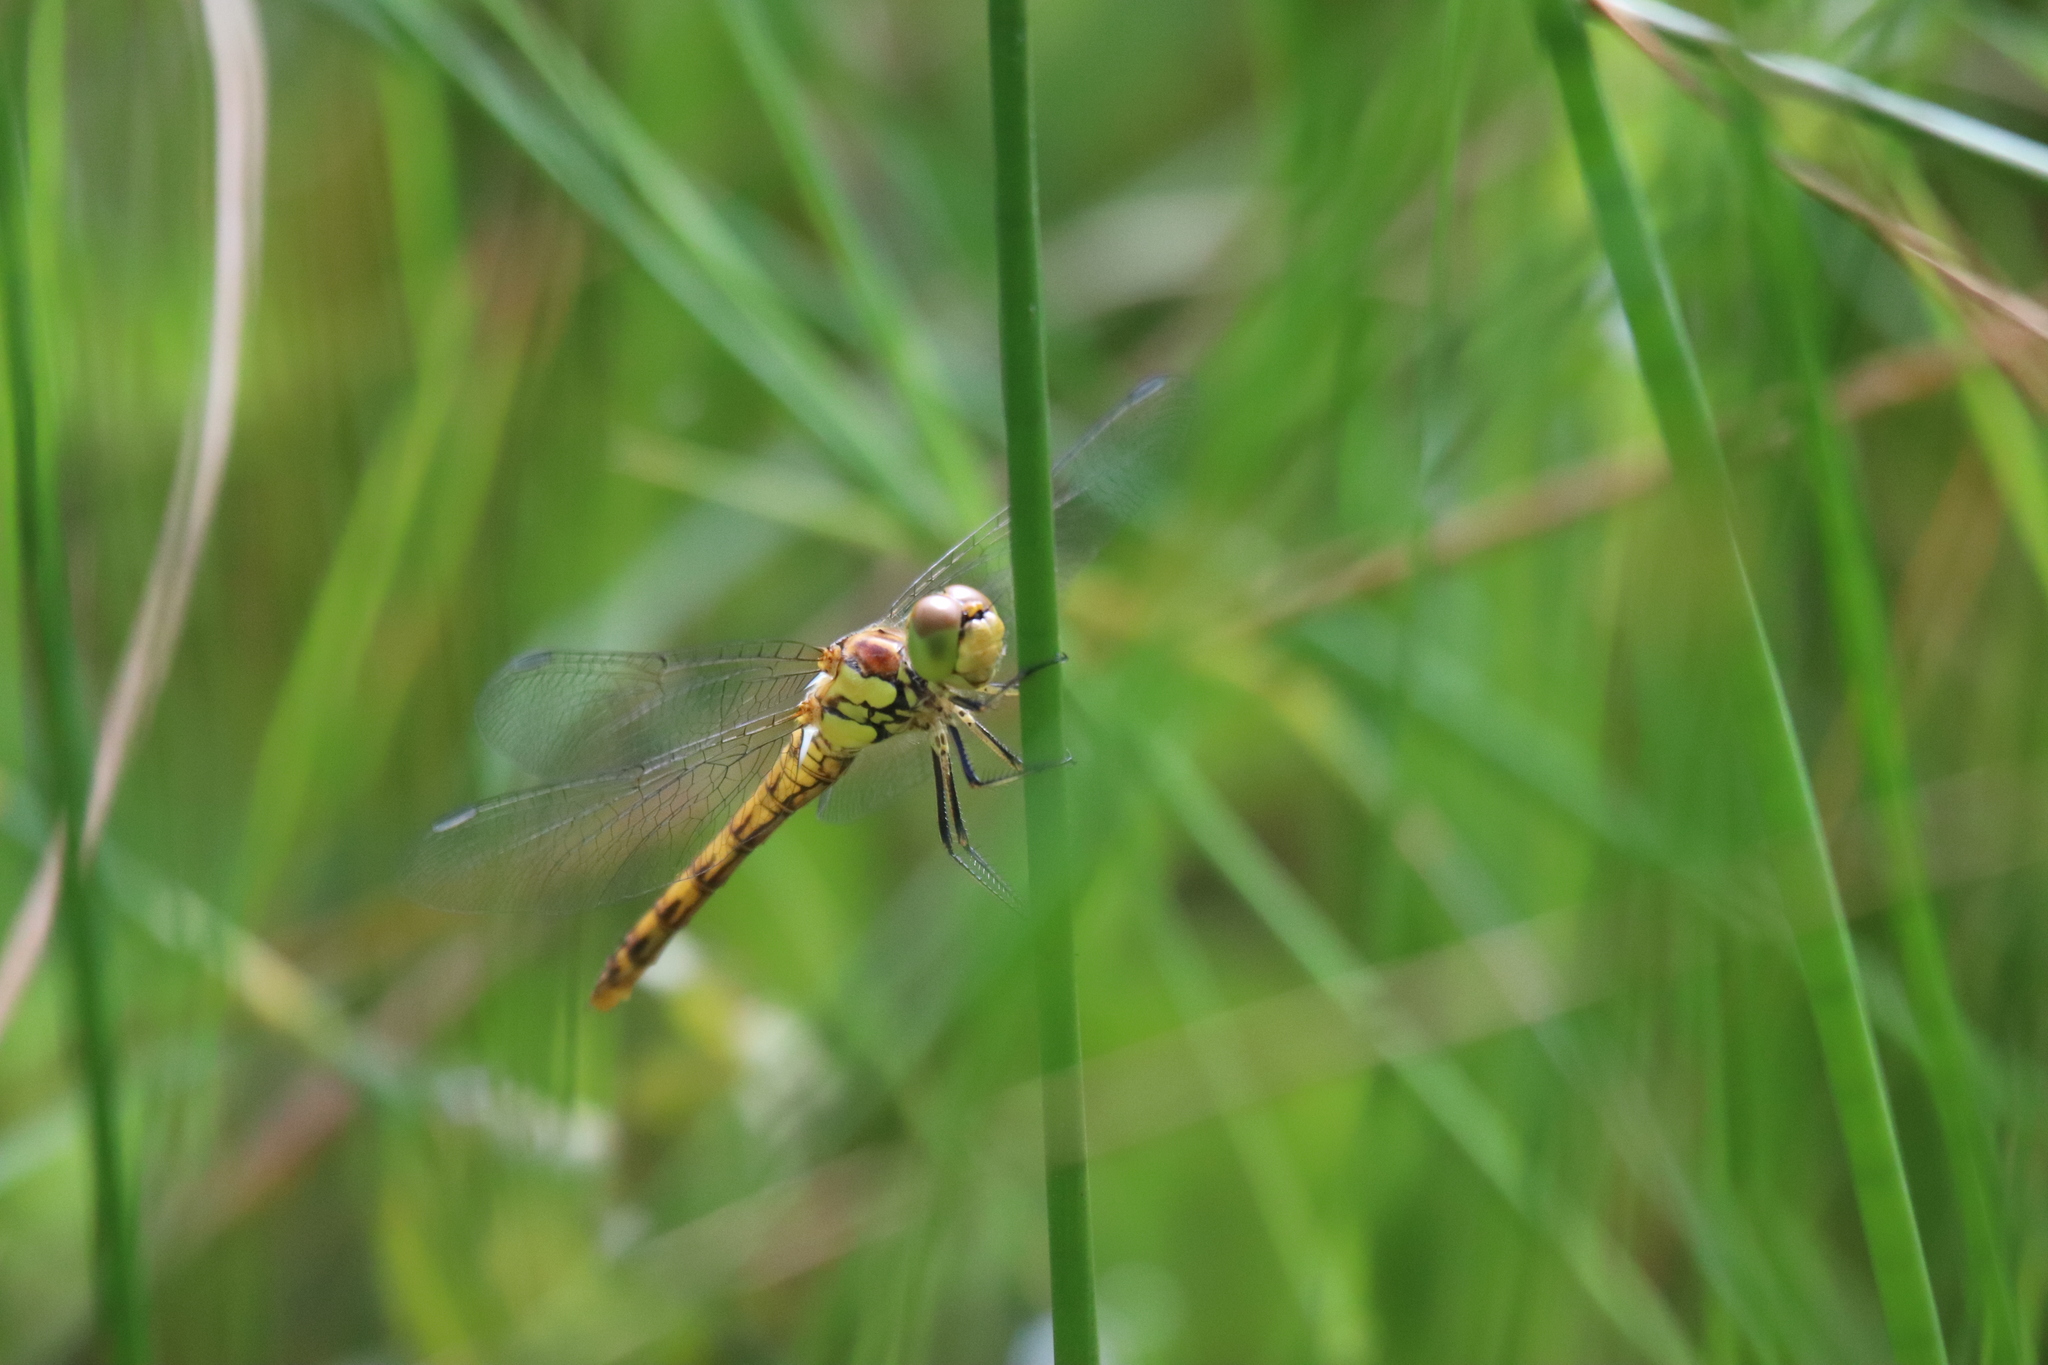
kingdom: Animalia
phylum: Arthropoda
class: Insecta
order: Odonata
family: Libellulidae
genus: Sympetrum
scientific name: Sympetrum striolatum
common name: Common darter
